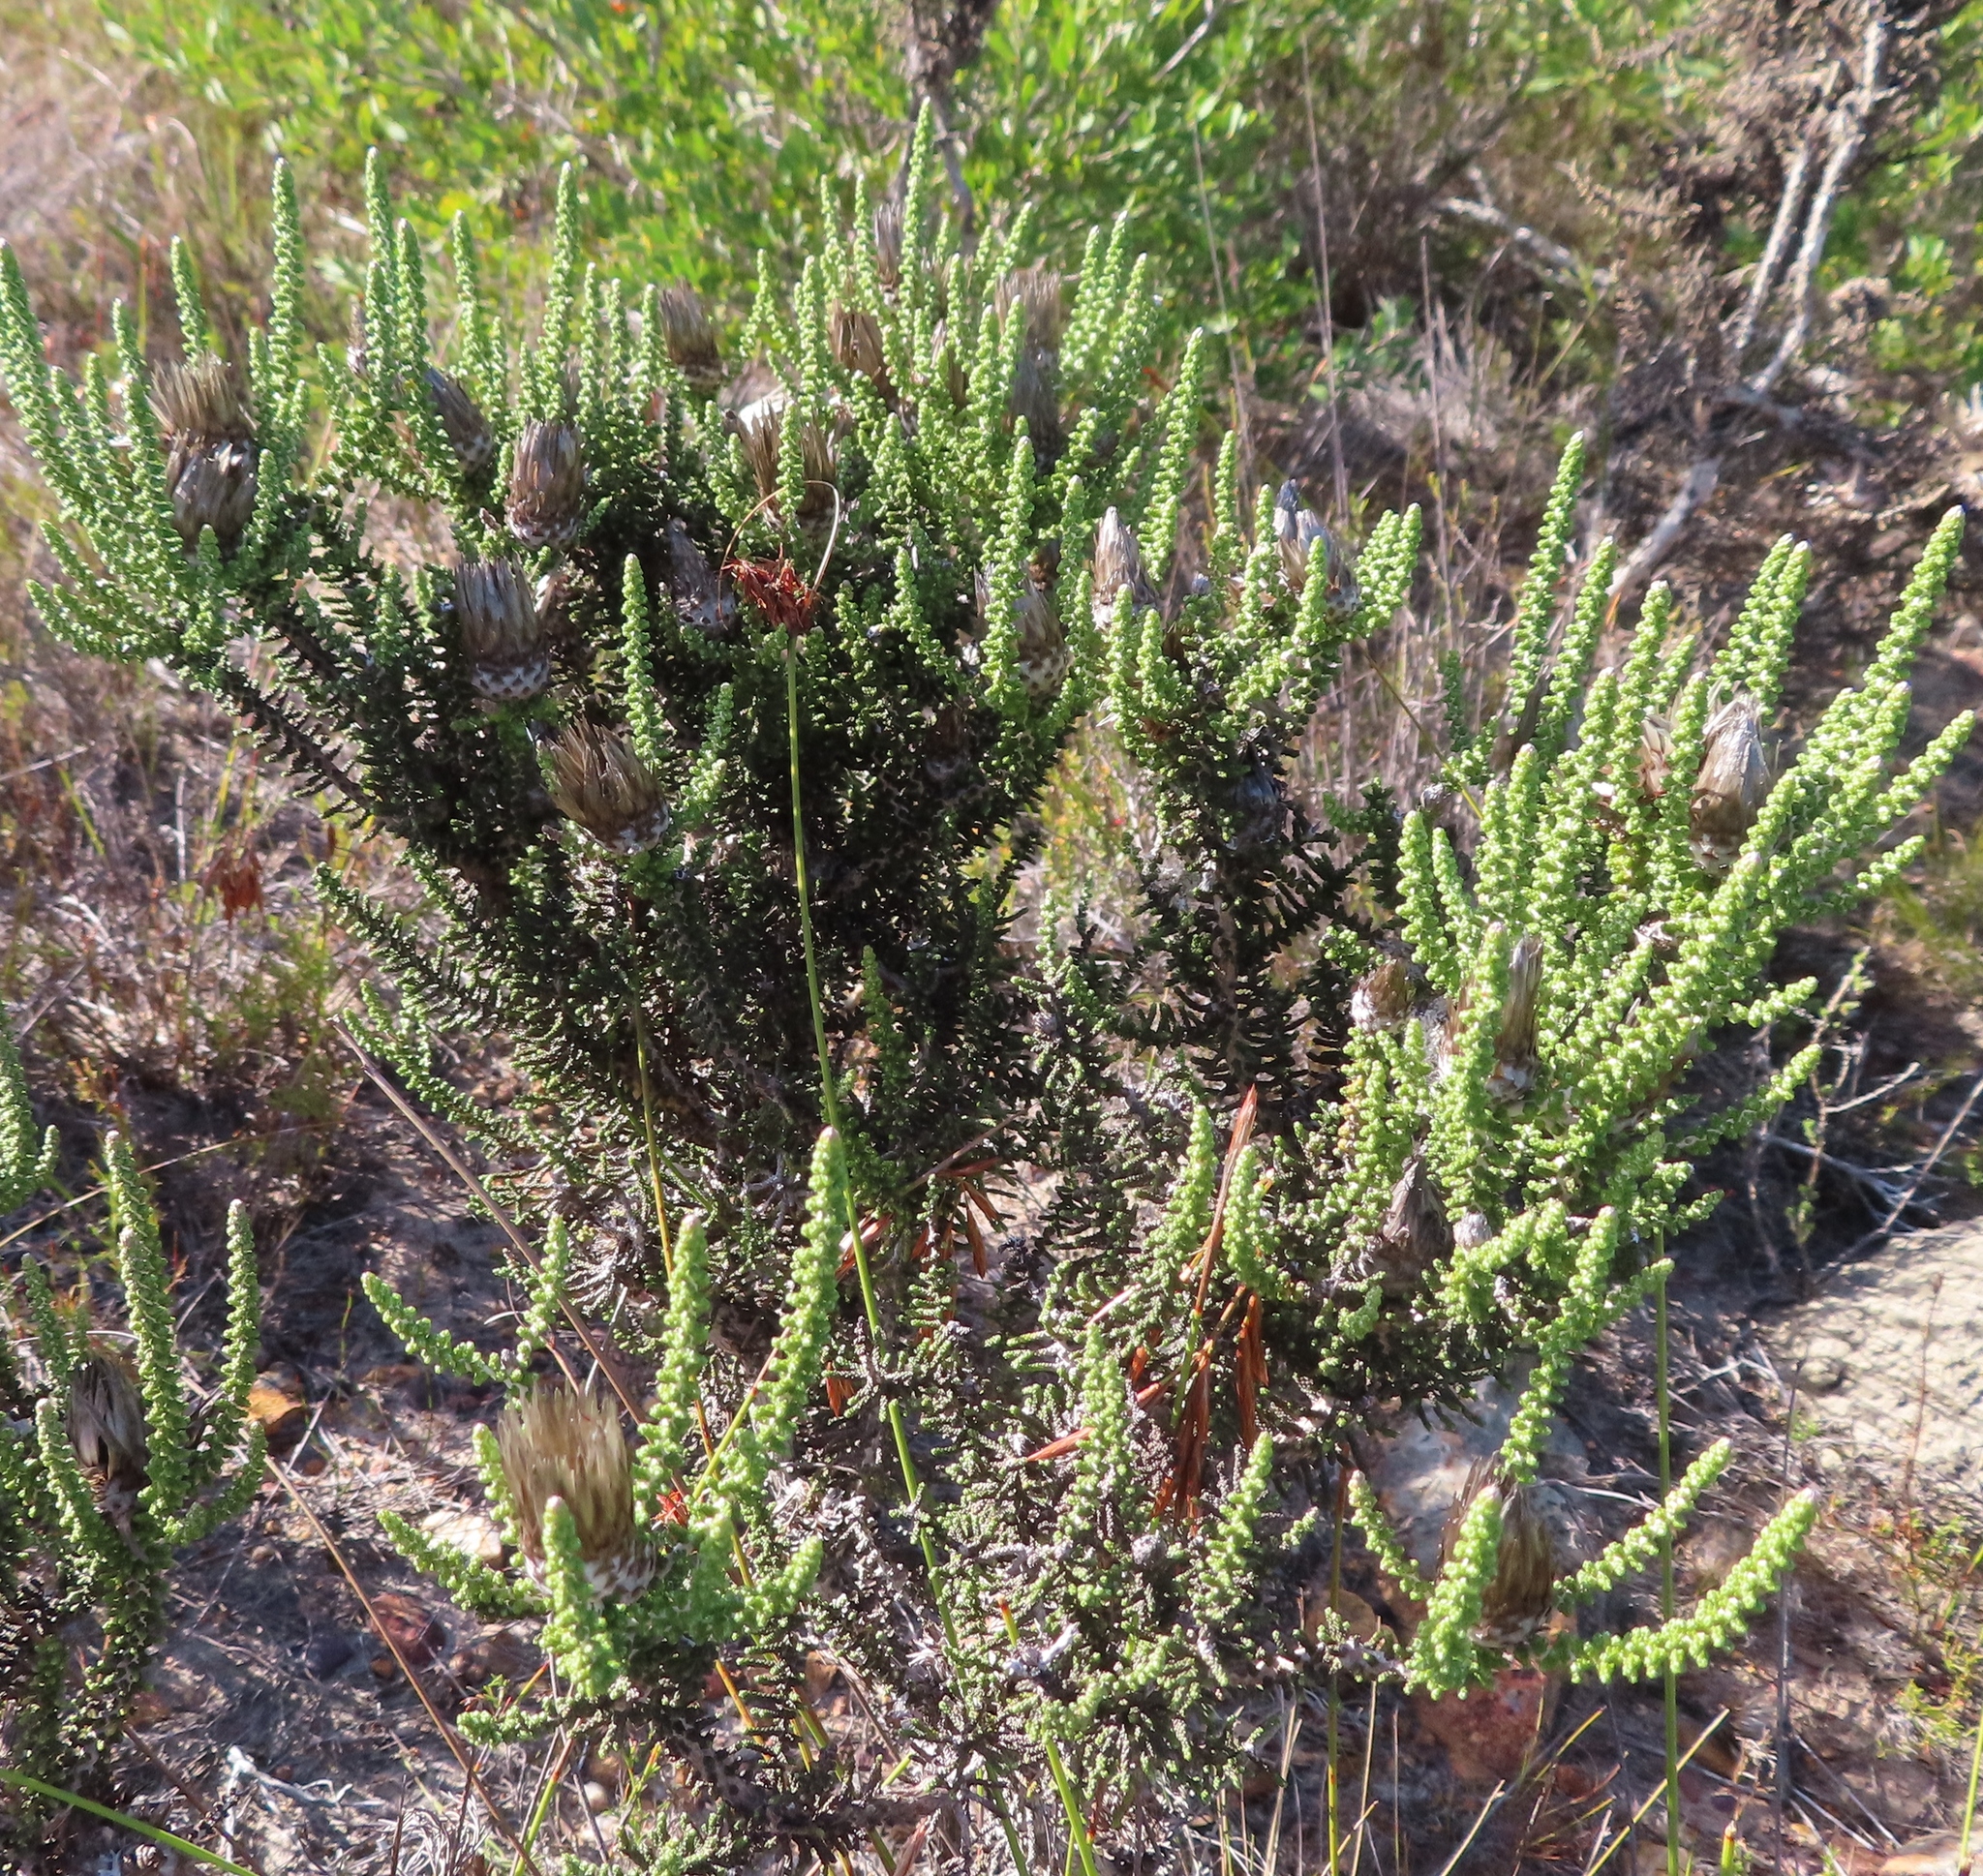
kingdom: Plantae
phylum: Tracheophyta
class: Magnoliopsida
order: Asterales
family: Asteraceae
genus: Phaenocoma
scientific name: Phaenocoma prolifera
